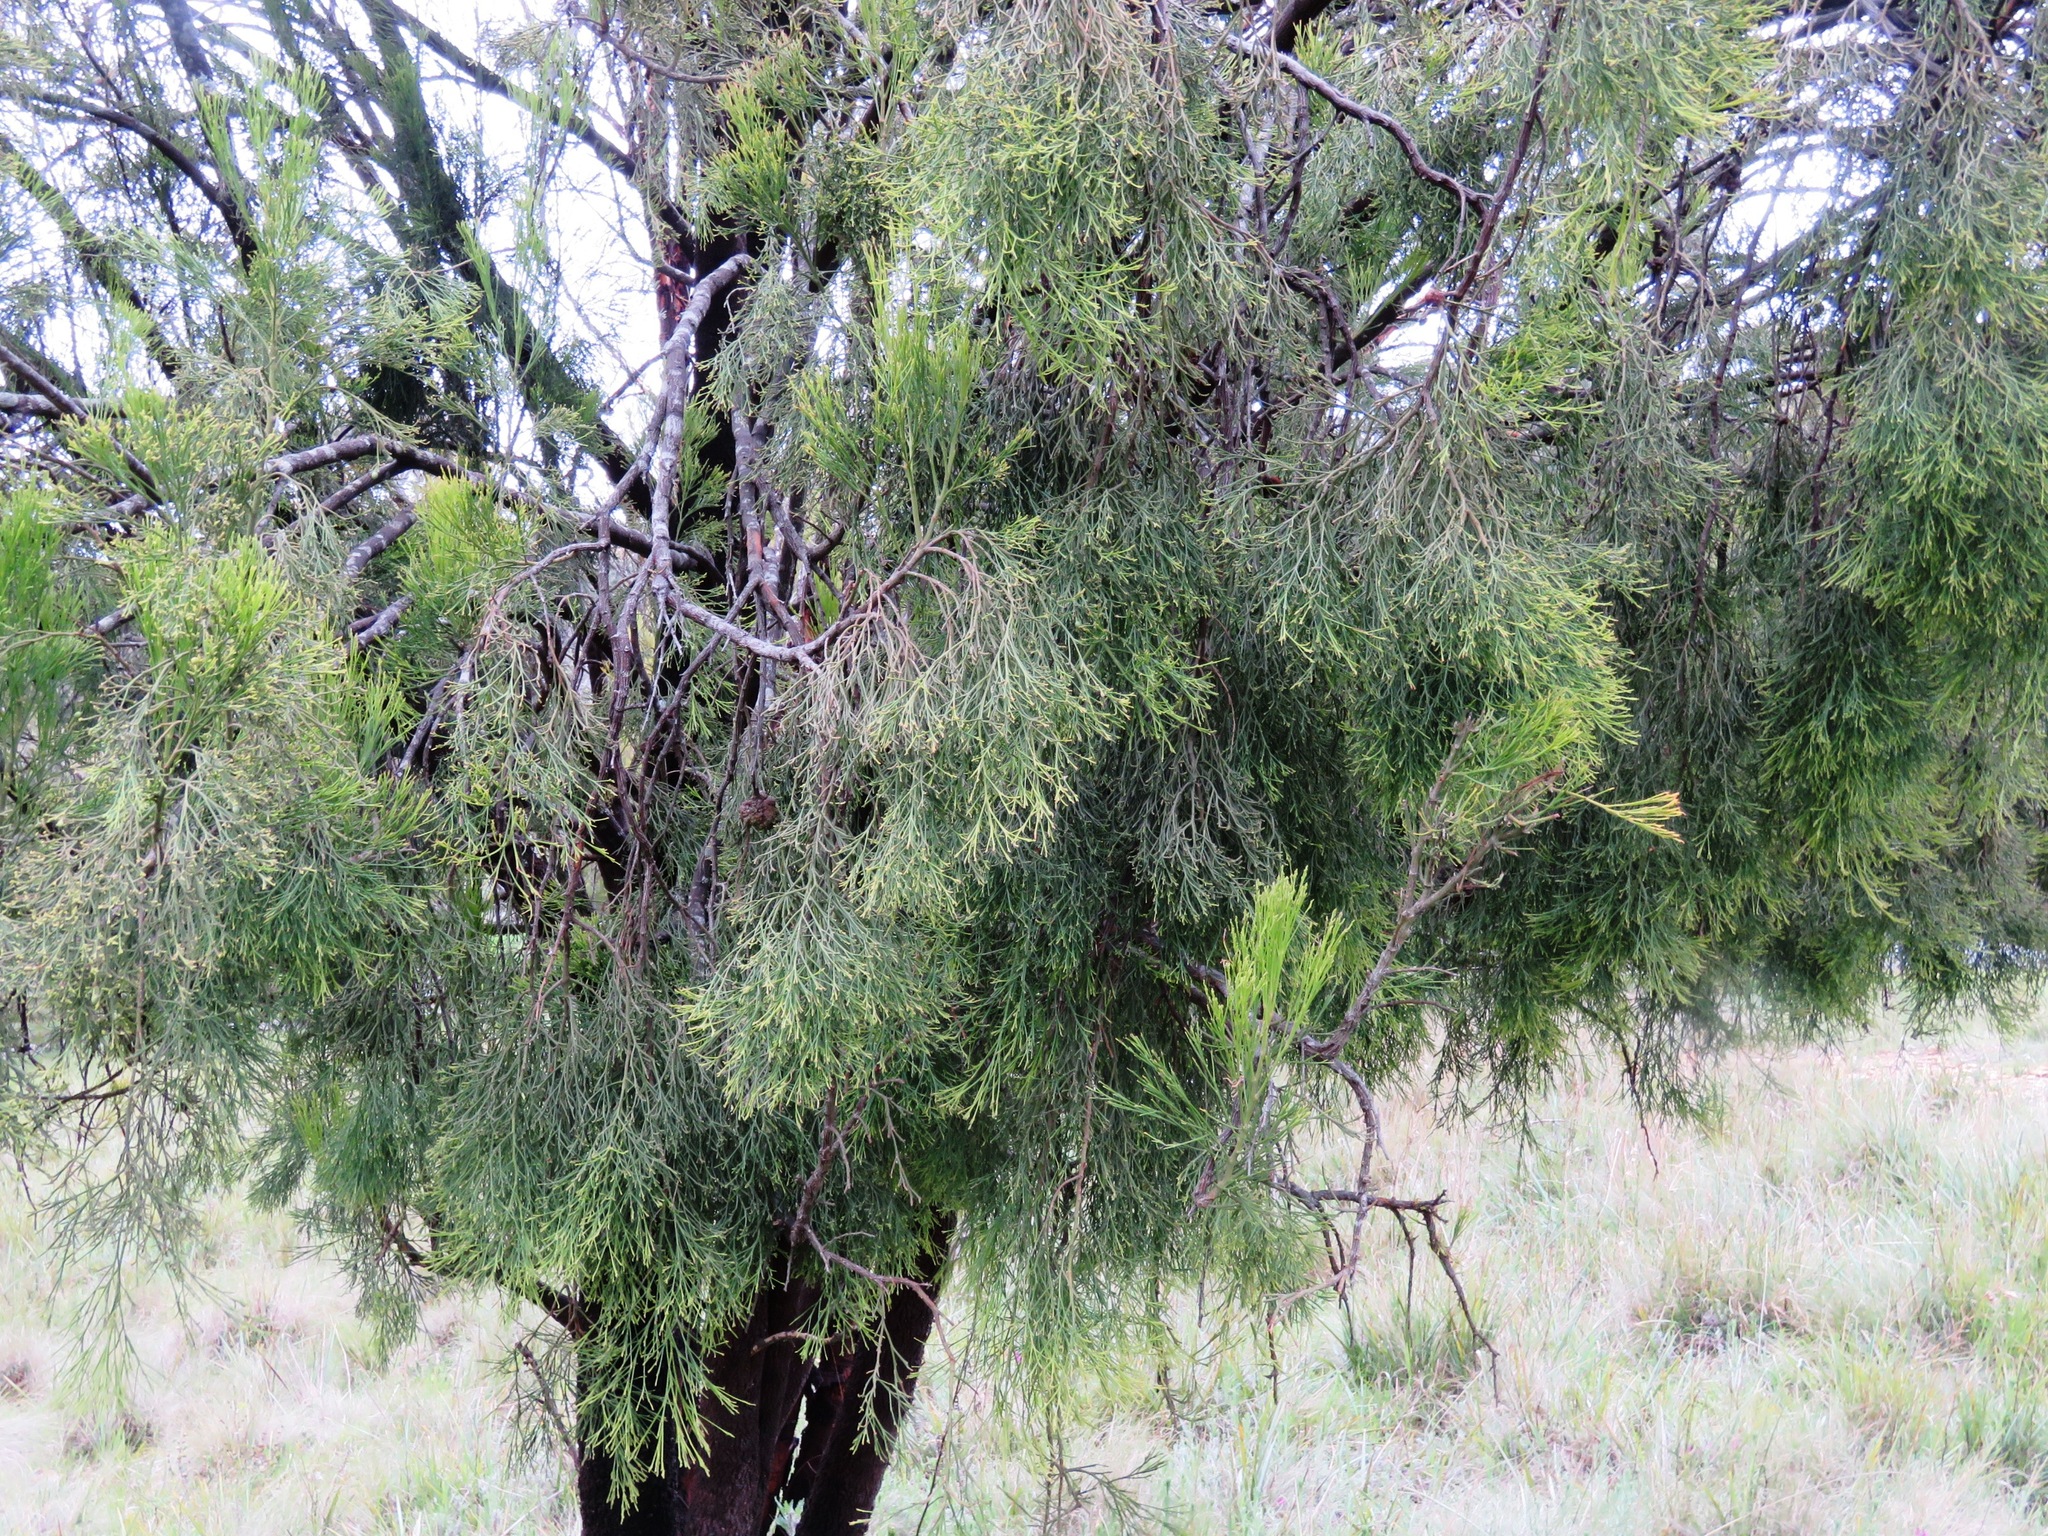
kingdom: Plantae
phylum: Tracheophyta
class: Magnoliopsida
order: Santalales
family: Santalaceae
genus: Exocarpos
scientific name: Exocarpos cupressiformis
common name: Cherry ballart
